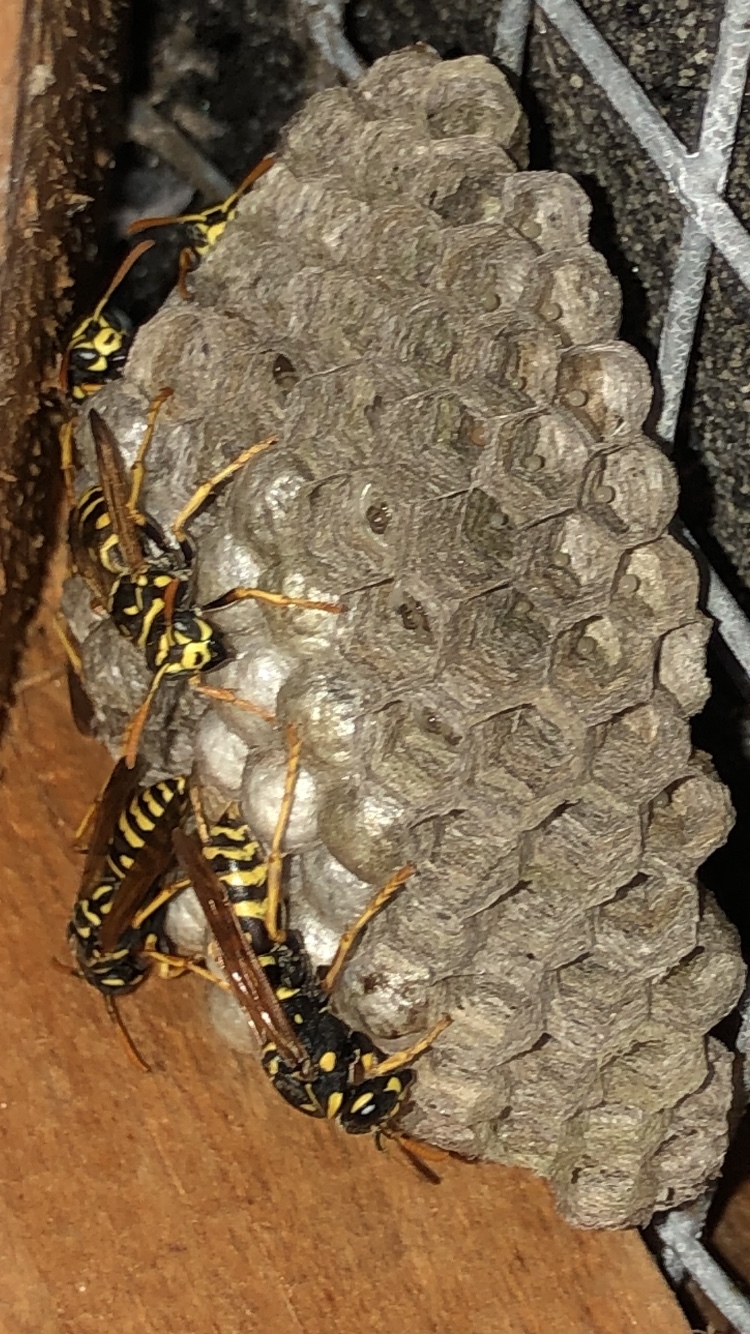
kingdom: Animalia
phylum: Arthropoda
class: Insecta
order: Hymenoptera
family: Eumenidae
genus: Polistes
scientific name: Polistes dominula
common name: Paper wasp
